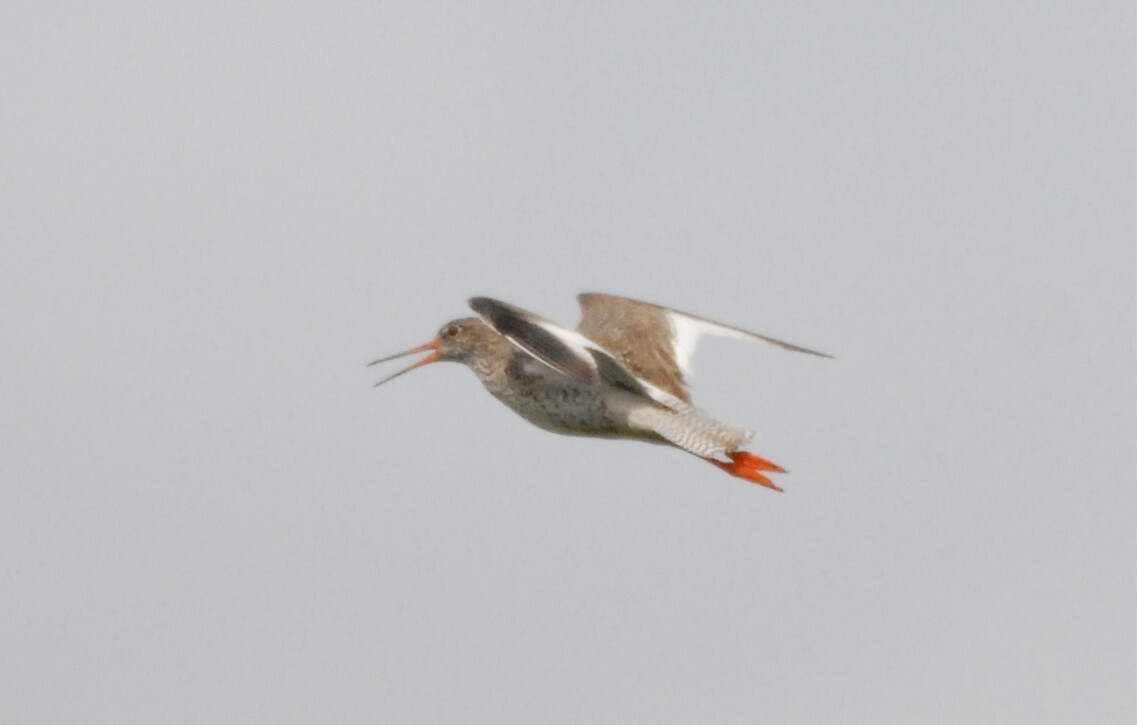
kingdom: Animalia
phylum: Chordata
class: Aves
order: Charadriiformes
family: Scolopacidae
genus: Tringa
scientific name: Tringa totanus
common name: Common redshank
